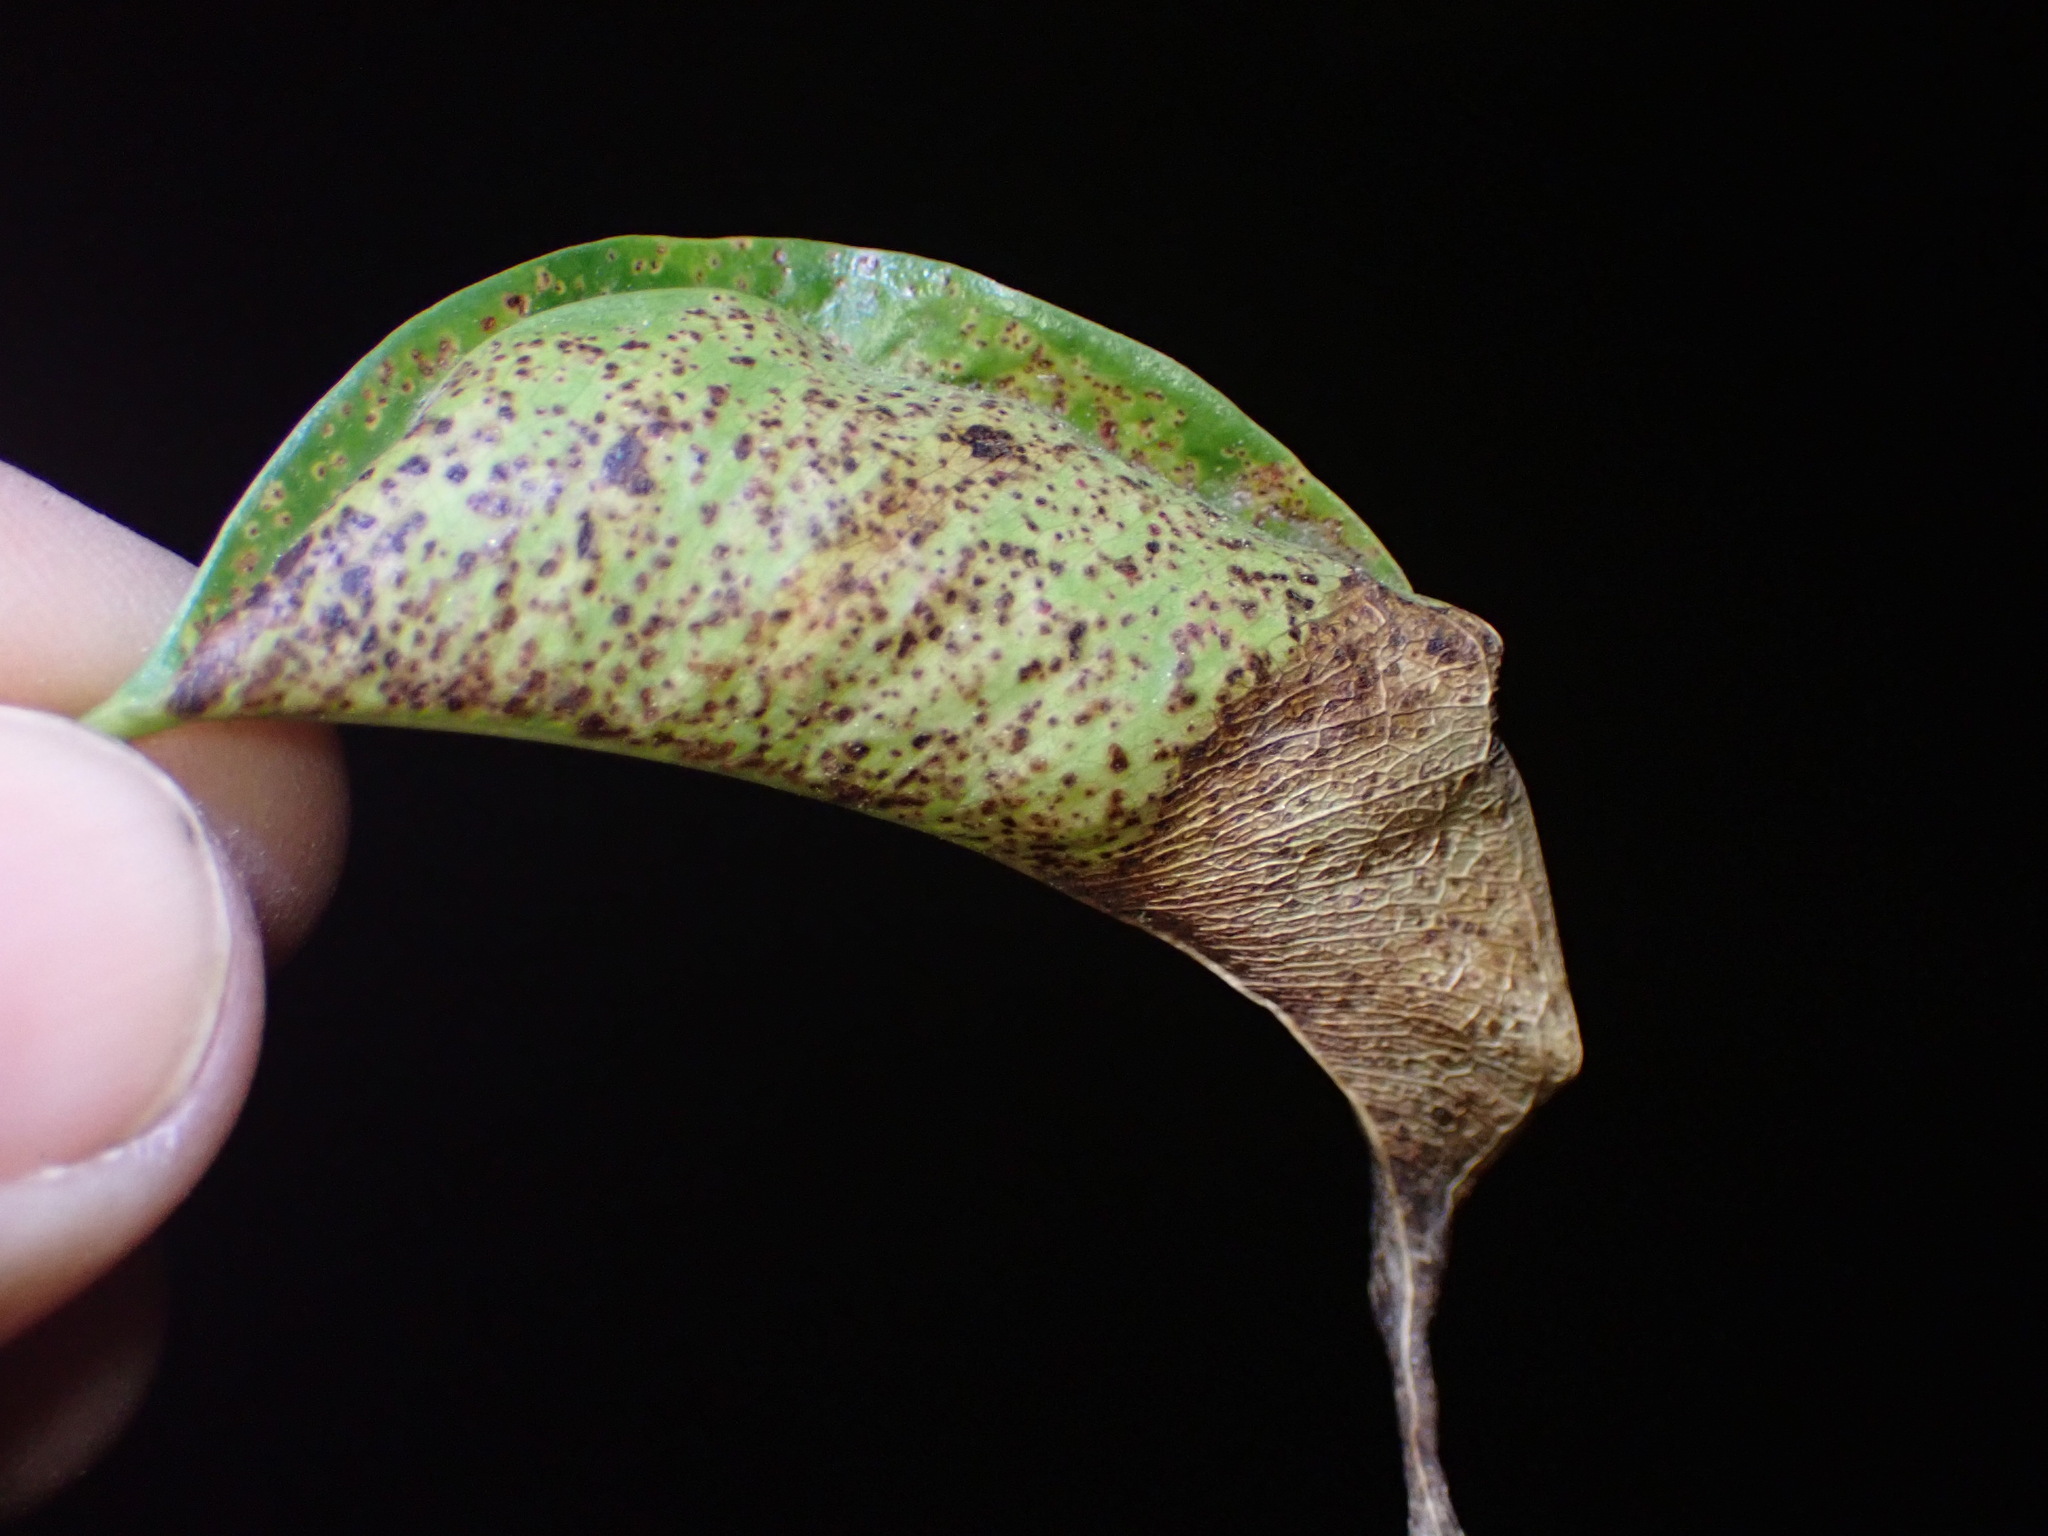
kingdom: Animalia
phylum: Arthropoda
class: Insecta
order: Thysanoptera
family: Phlaeothripidae
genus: Gynaikothrips
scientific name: Gynaikothrips uzeli
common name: Leaf-gall thrips
